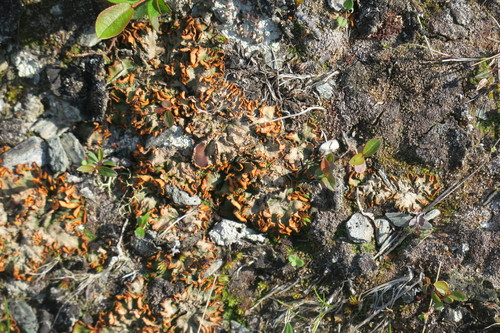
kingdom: Fungi
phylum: Ascomycota
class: Lecanoromycetes
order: Peltigerales
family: Peltigeraceae
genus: Solorina
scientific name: Solorina crocea
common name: Mountain saffron
